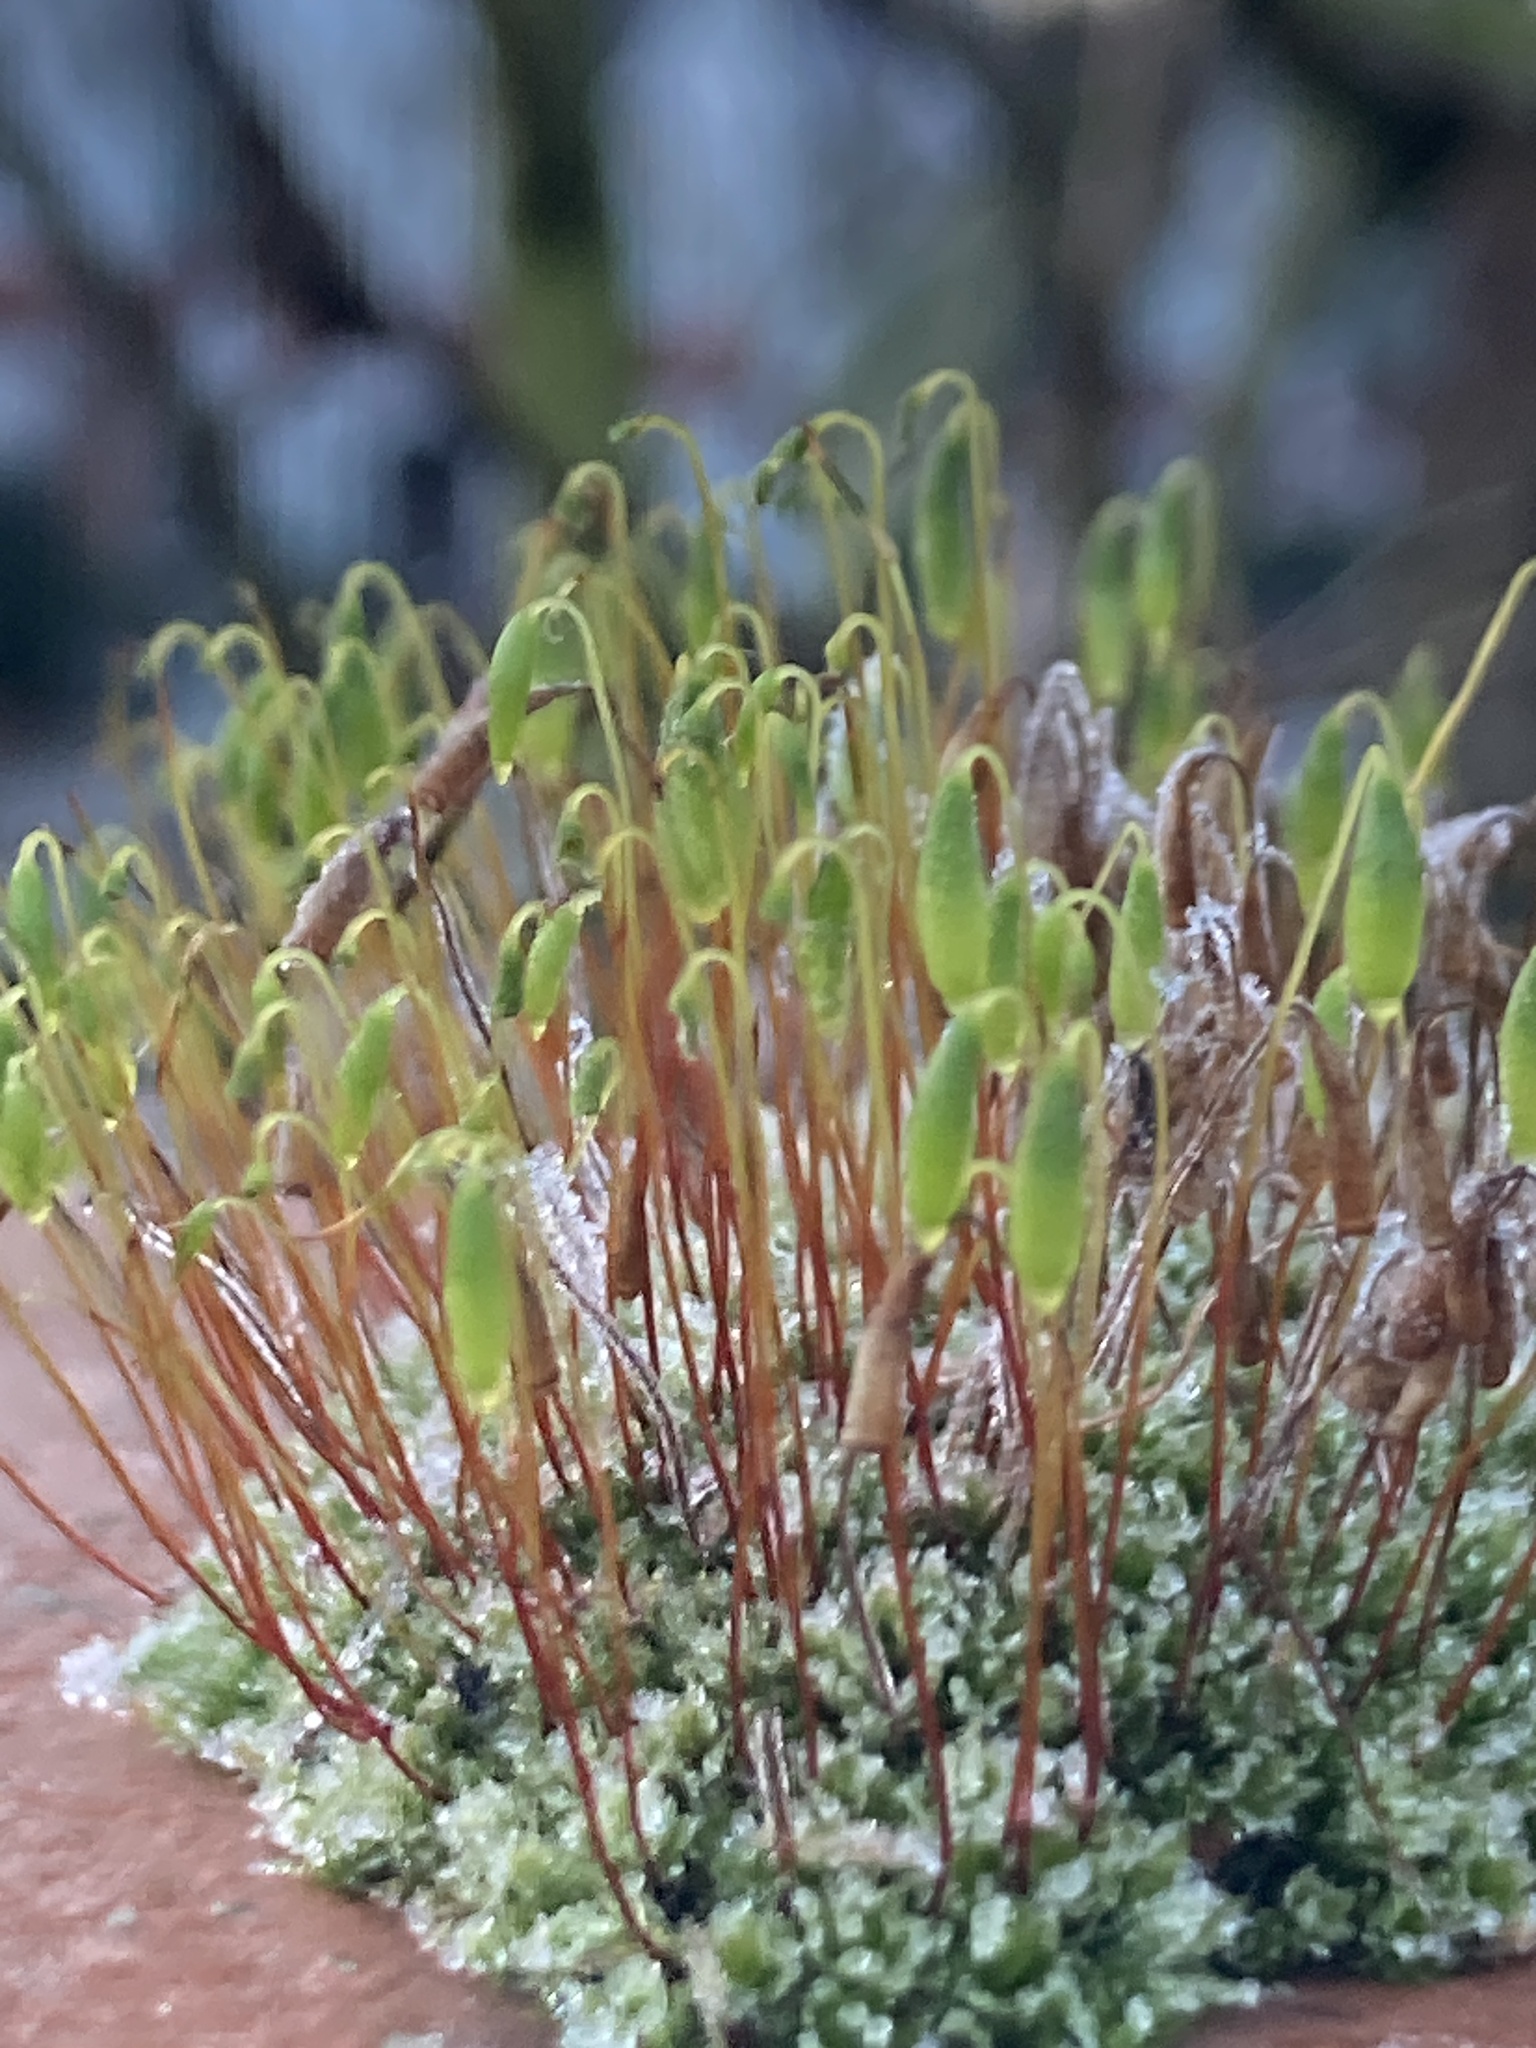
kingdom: Plantae
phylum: Bryophyta
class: Bryopsida
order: Bryales
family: Bryaceae
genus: Rosulabryum
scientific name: Rosulabryum capillare
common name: Capillary thread-moss
